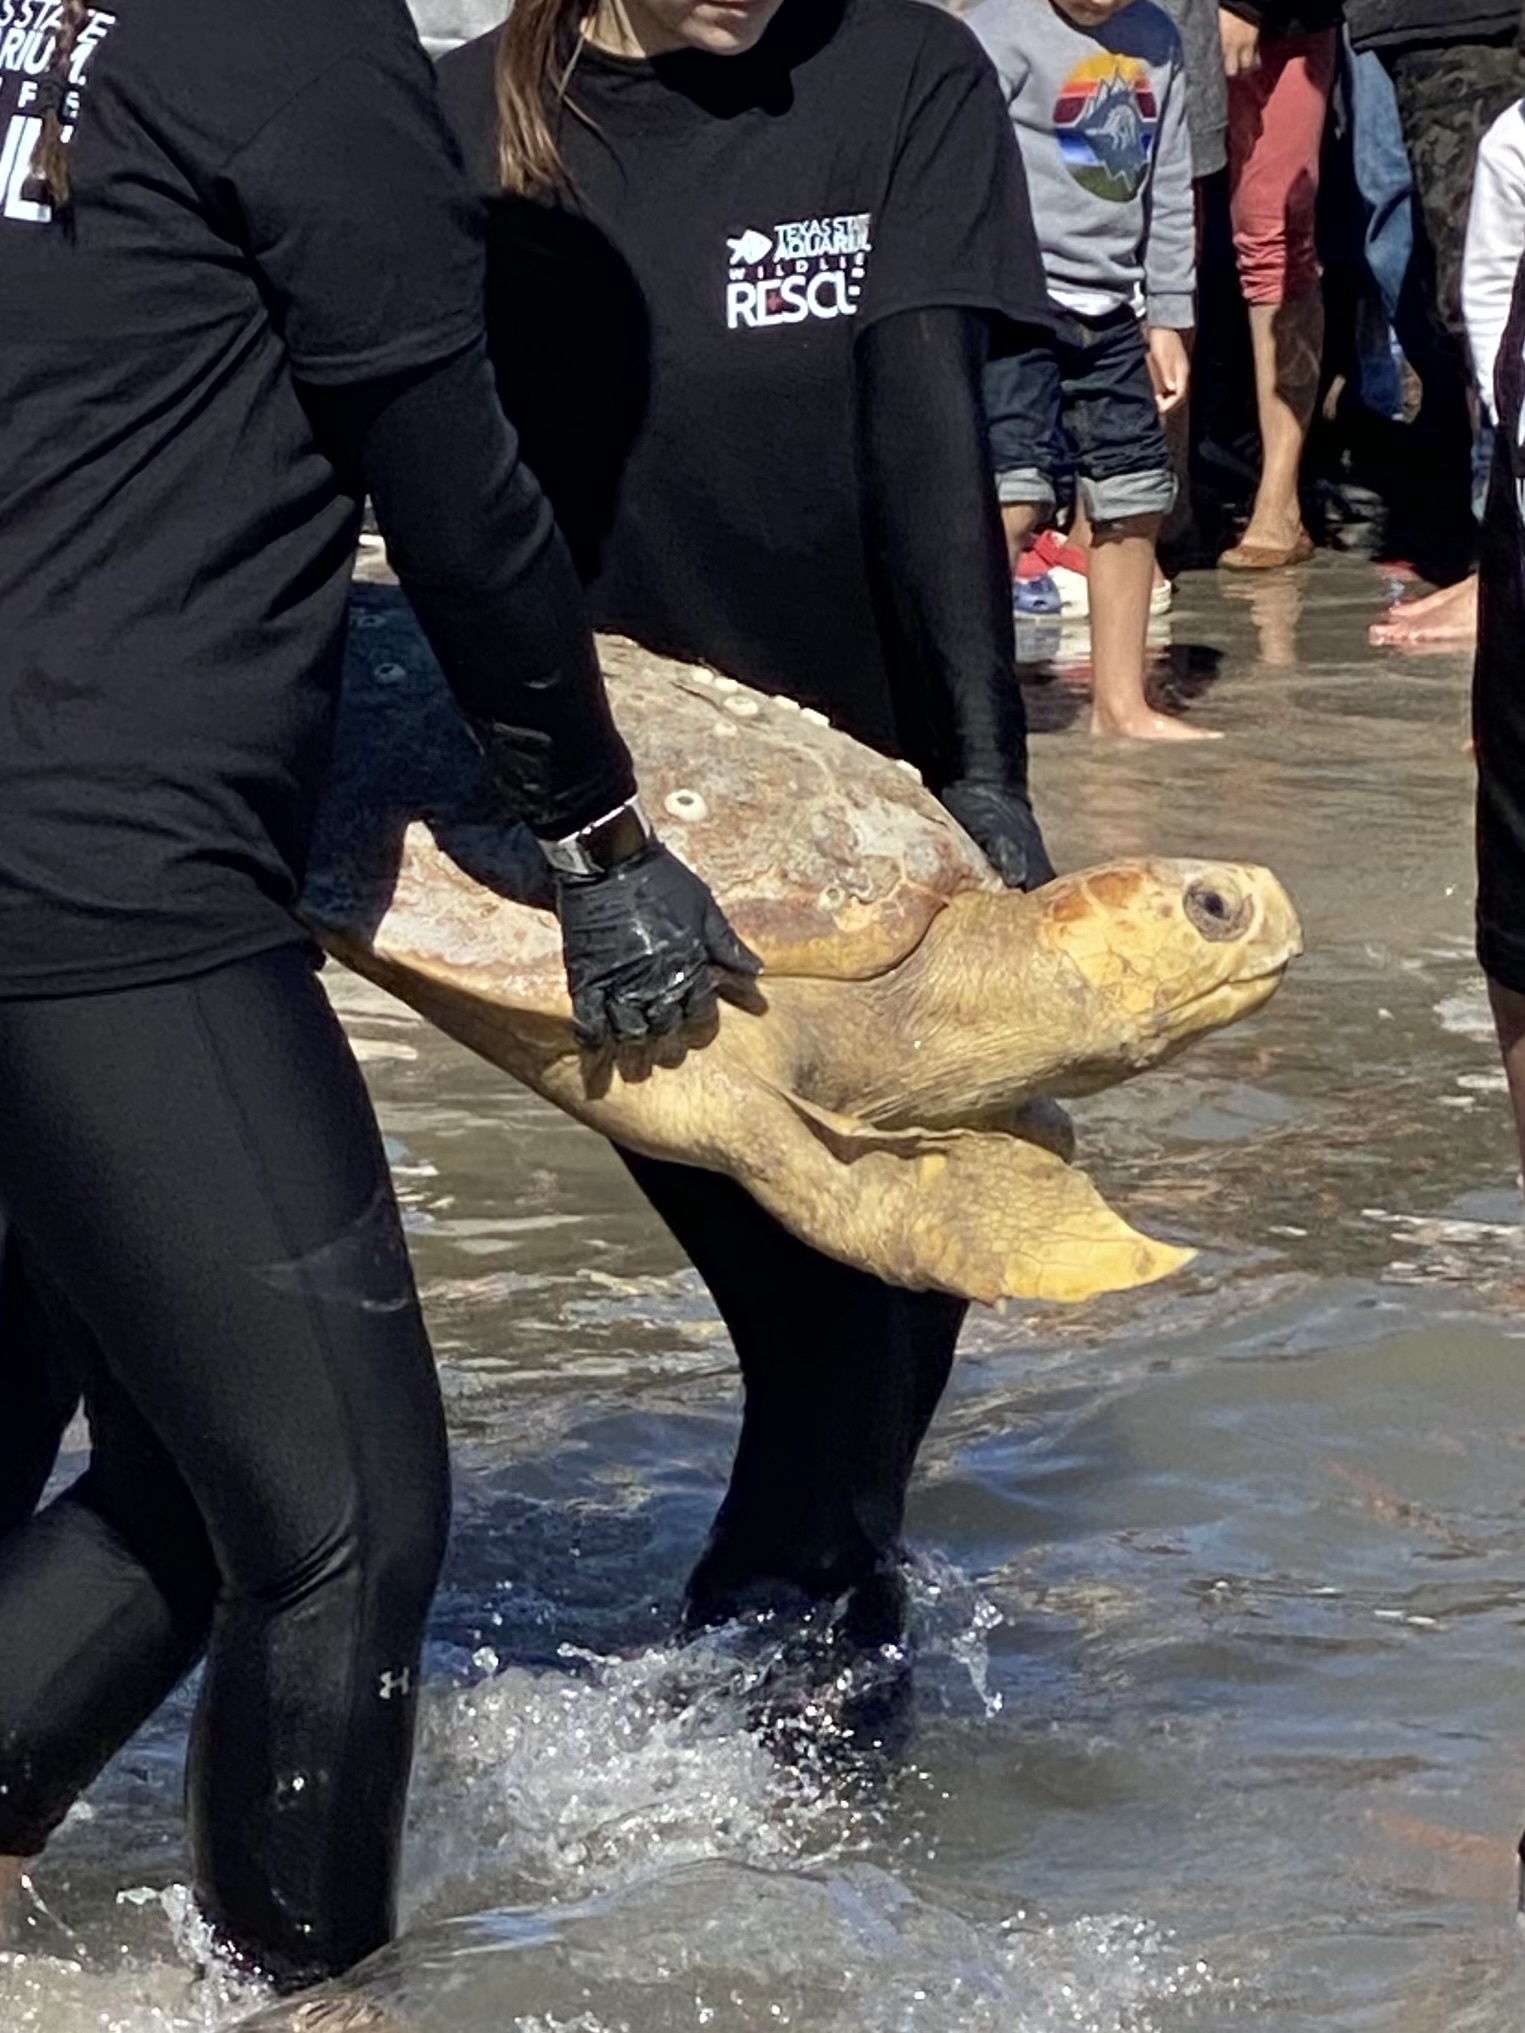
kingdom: Animalia
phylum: Chordata
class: Testudines
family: Cheloniidae
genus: Caretta
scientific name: Caretta caretta
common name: Loggerhead sea turtle
